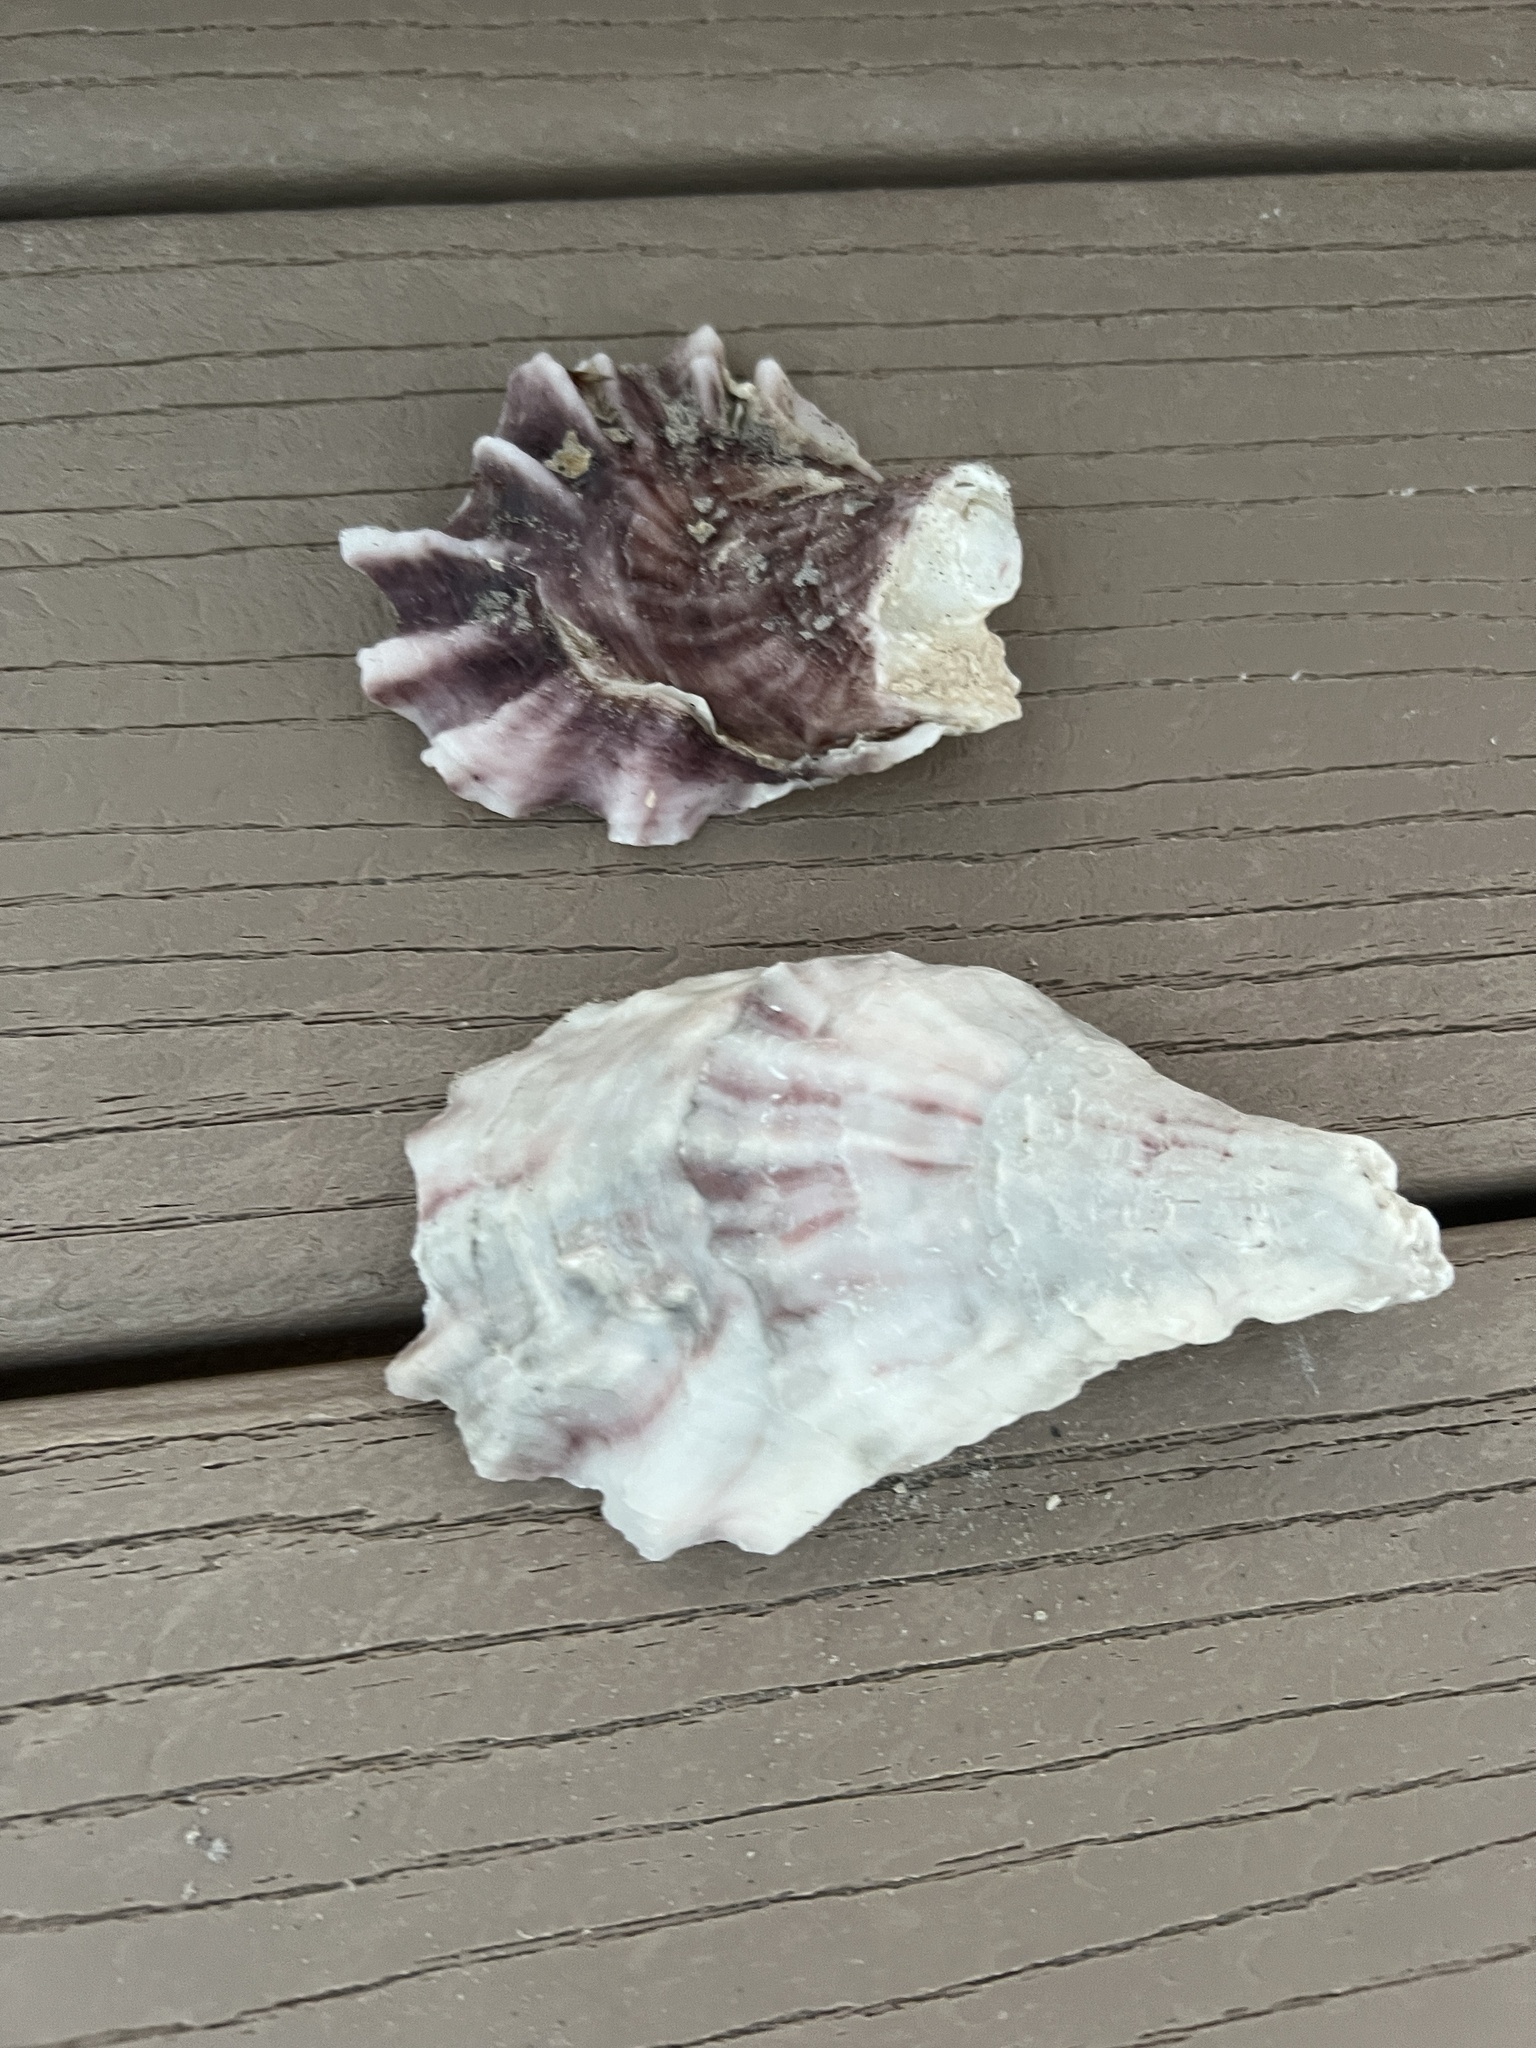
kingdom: Animalia
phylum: Mollusca
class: Bivalvia
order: Ostreida
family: Ostreidae
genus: Crassostrea
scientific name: Crassostrea virginica
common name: American oyster
